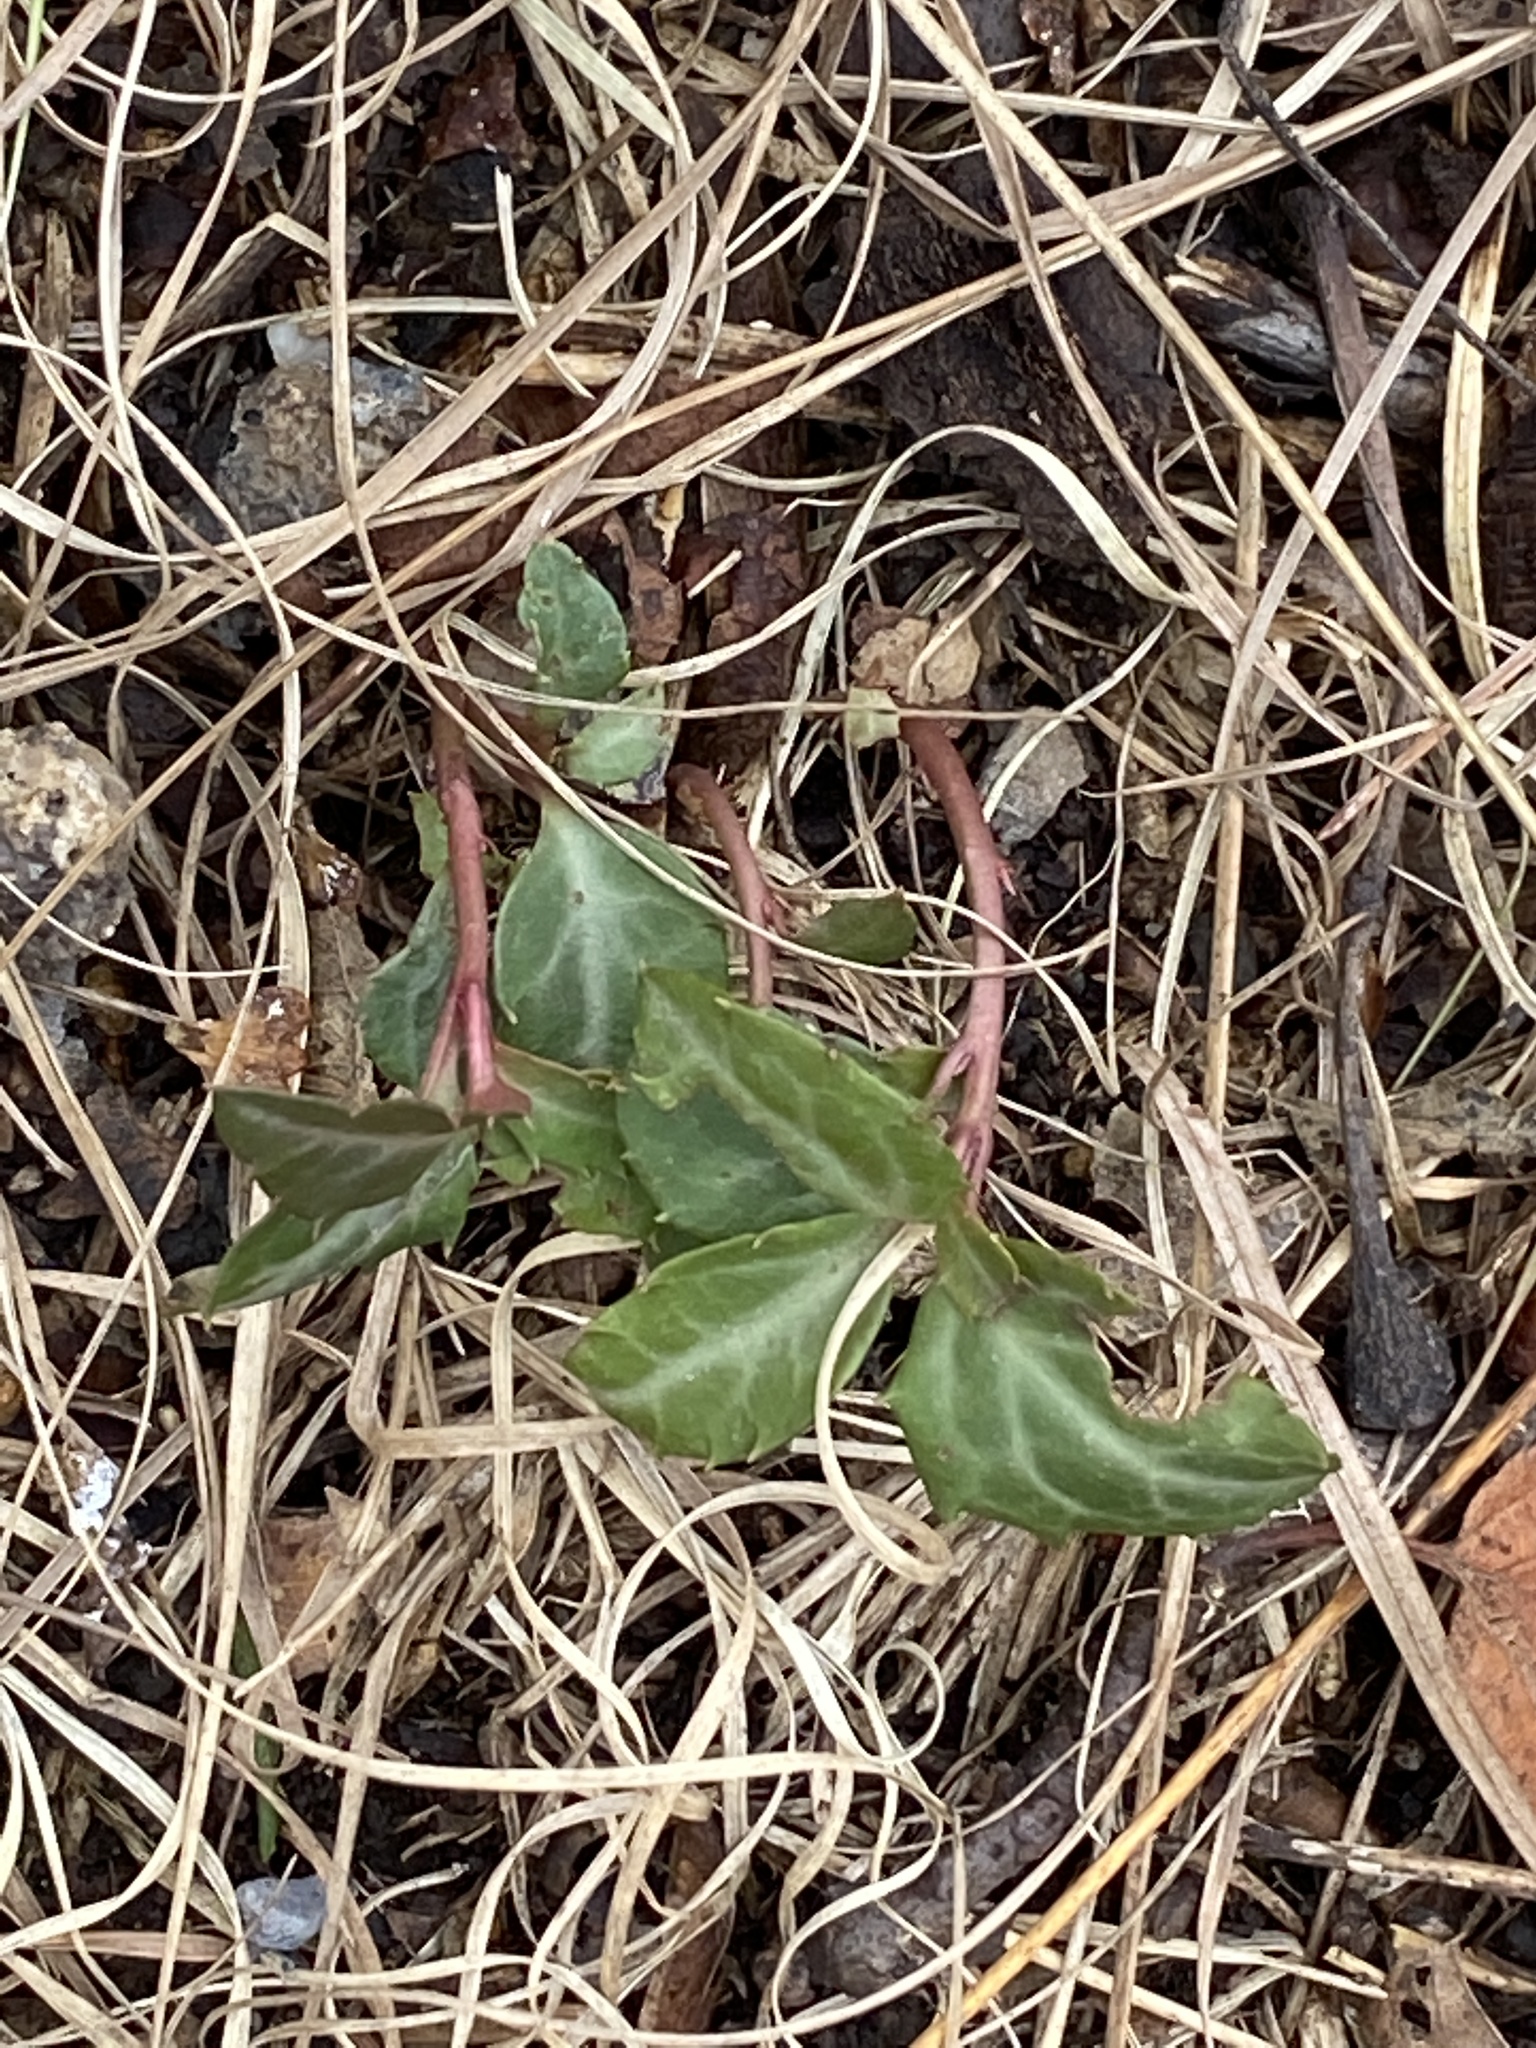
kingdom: Plantae
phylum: Tracheophyta
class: Magnoliopsida
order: Ericales
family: Ericaceae
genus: Chimaphila
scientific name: Chimaphila maculata
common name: Spotted pipsissewa
